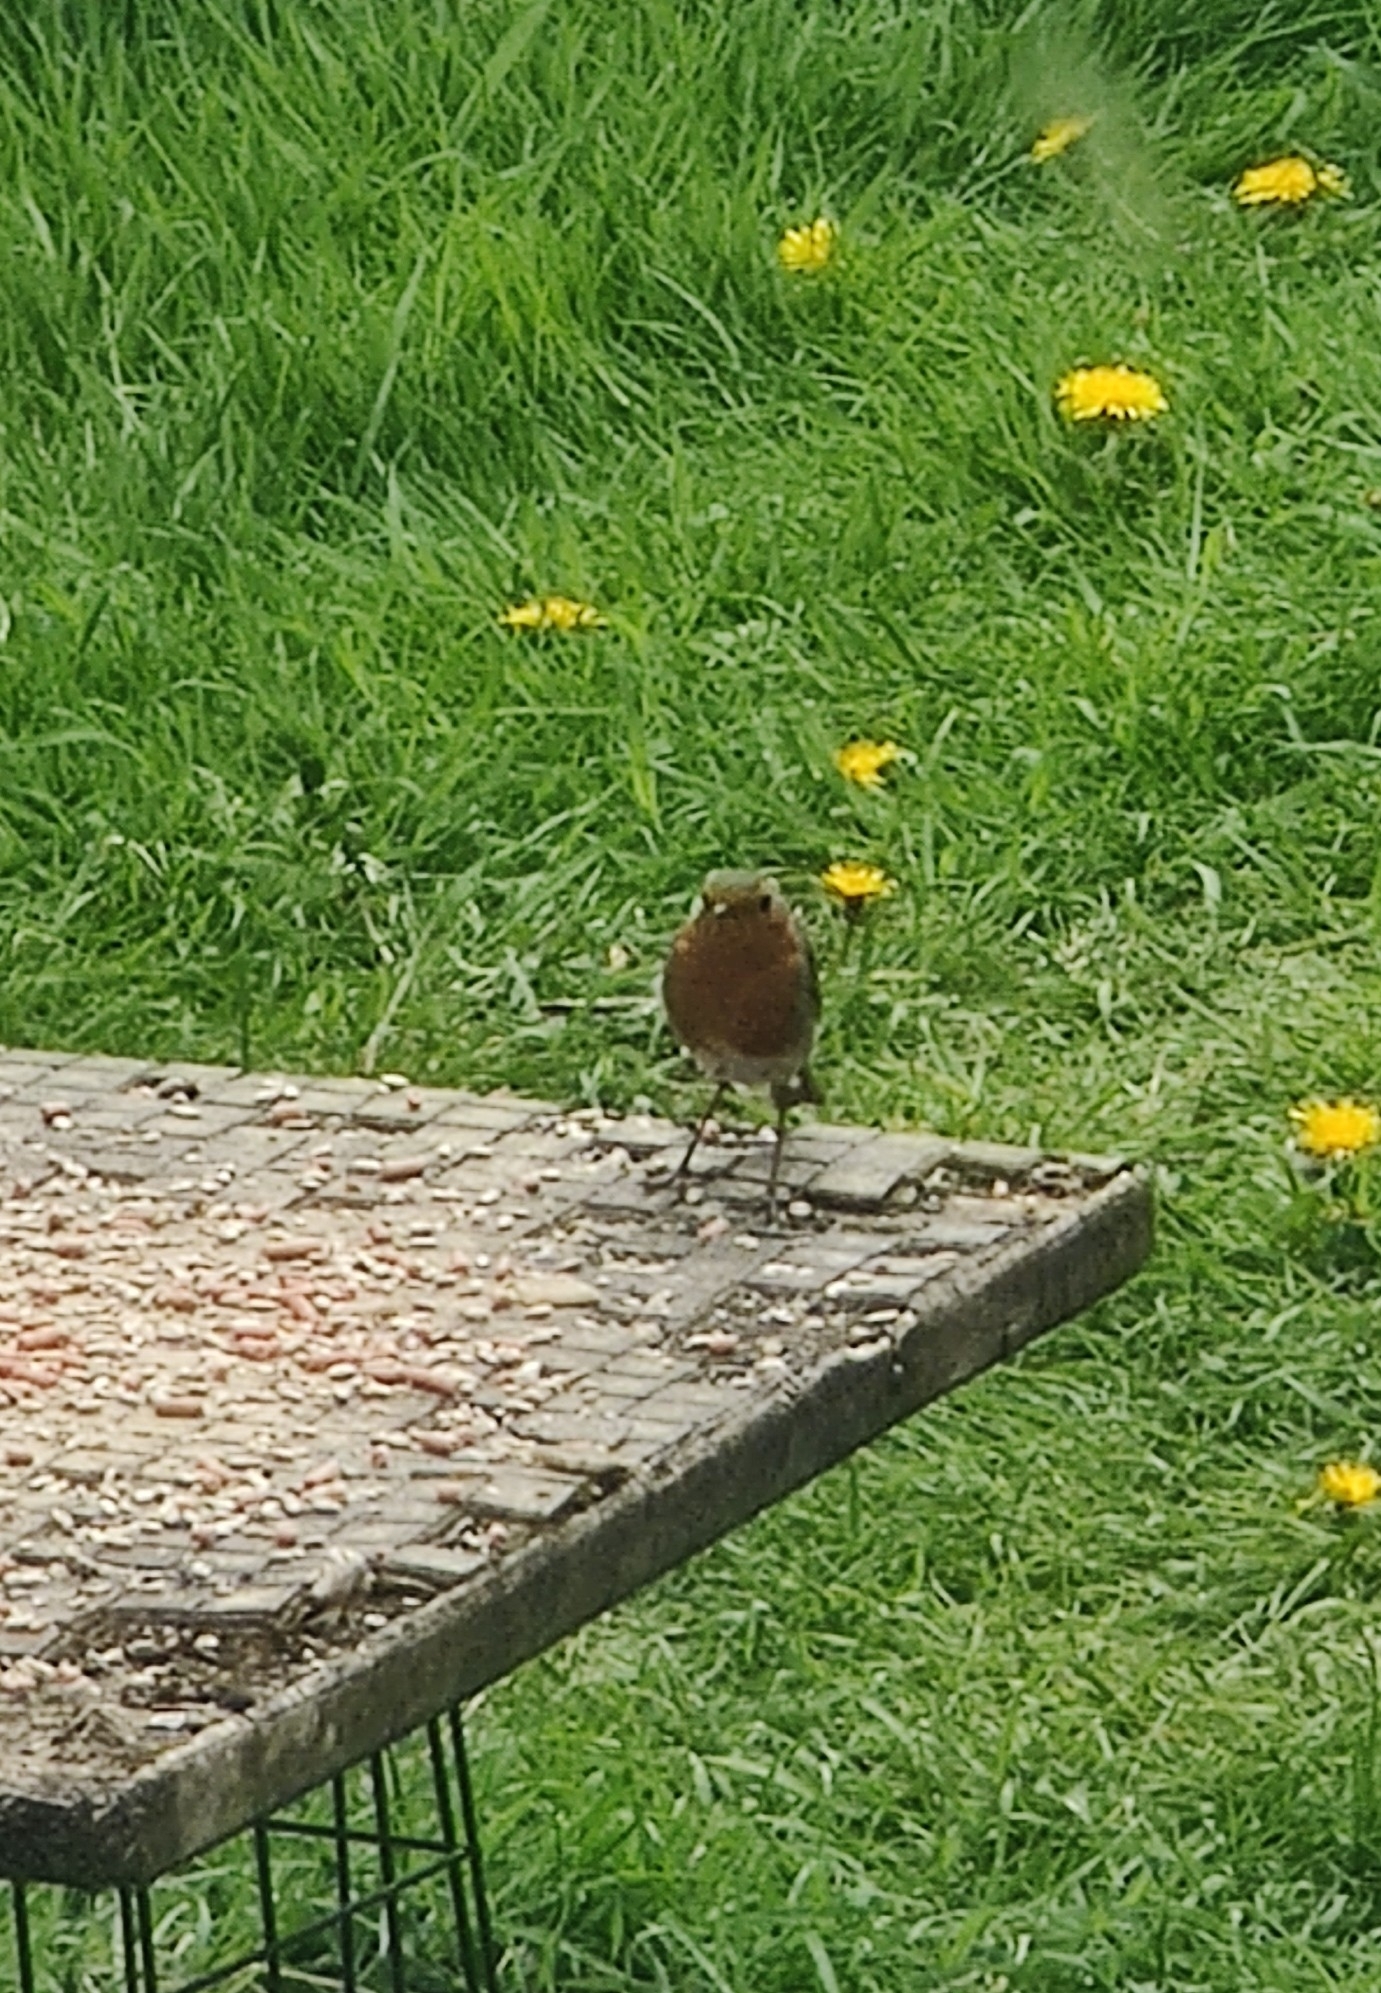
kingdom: Animalia
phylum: Chordata
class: Aves
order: Passeriformes
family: Muscicapidae
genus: Erithacus
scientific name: Erithacus rubecula
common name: European robin
